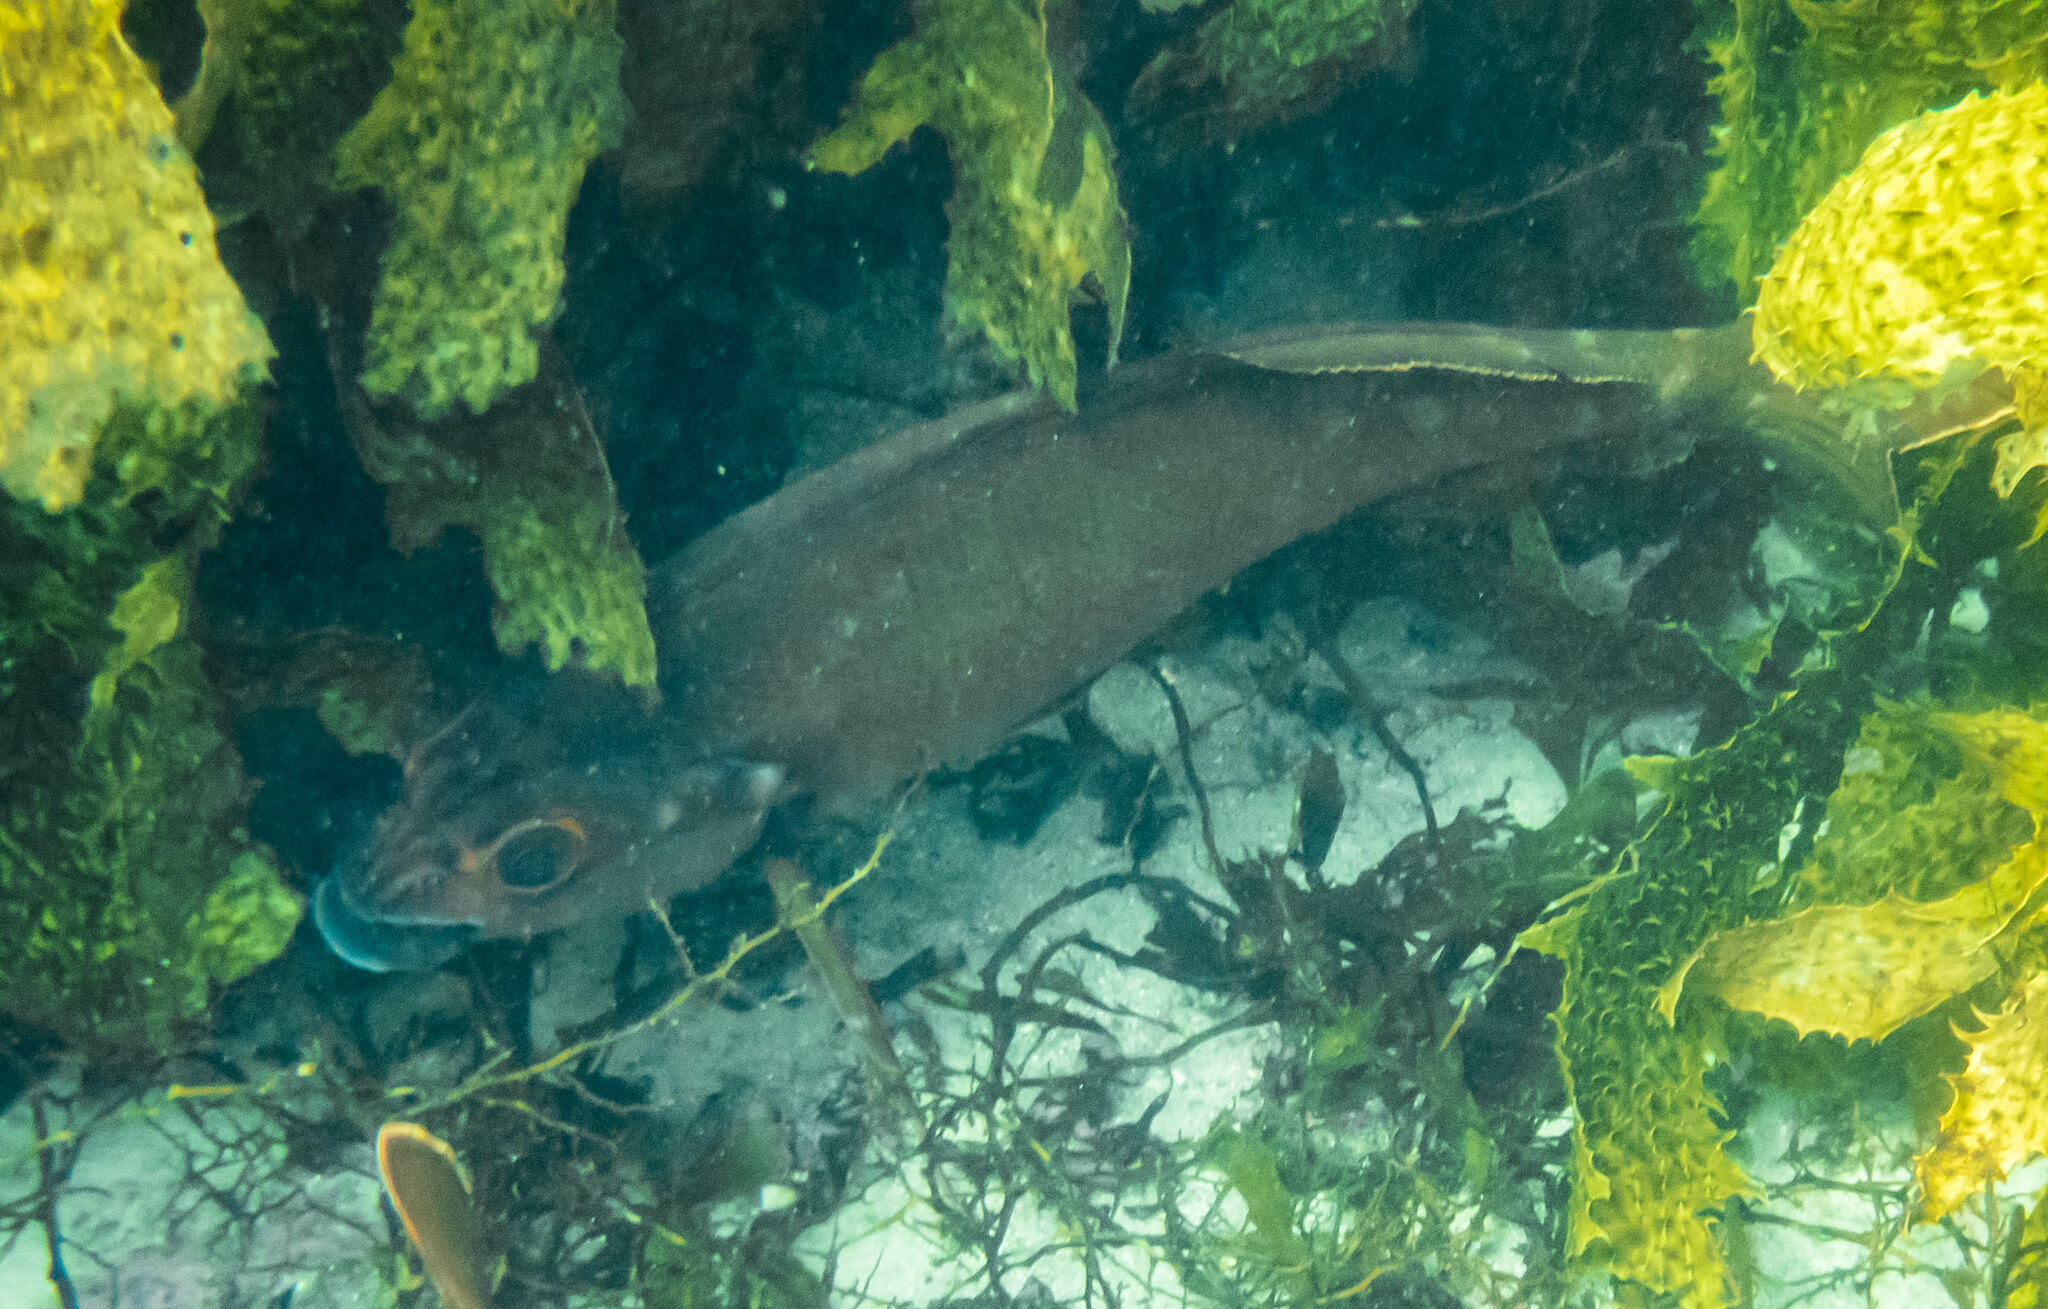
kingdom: Animalia
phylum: Chordata
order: Perciformes
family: Latridae
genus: Morwong
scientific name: Morwong fuscus
